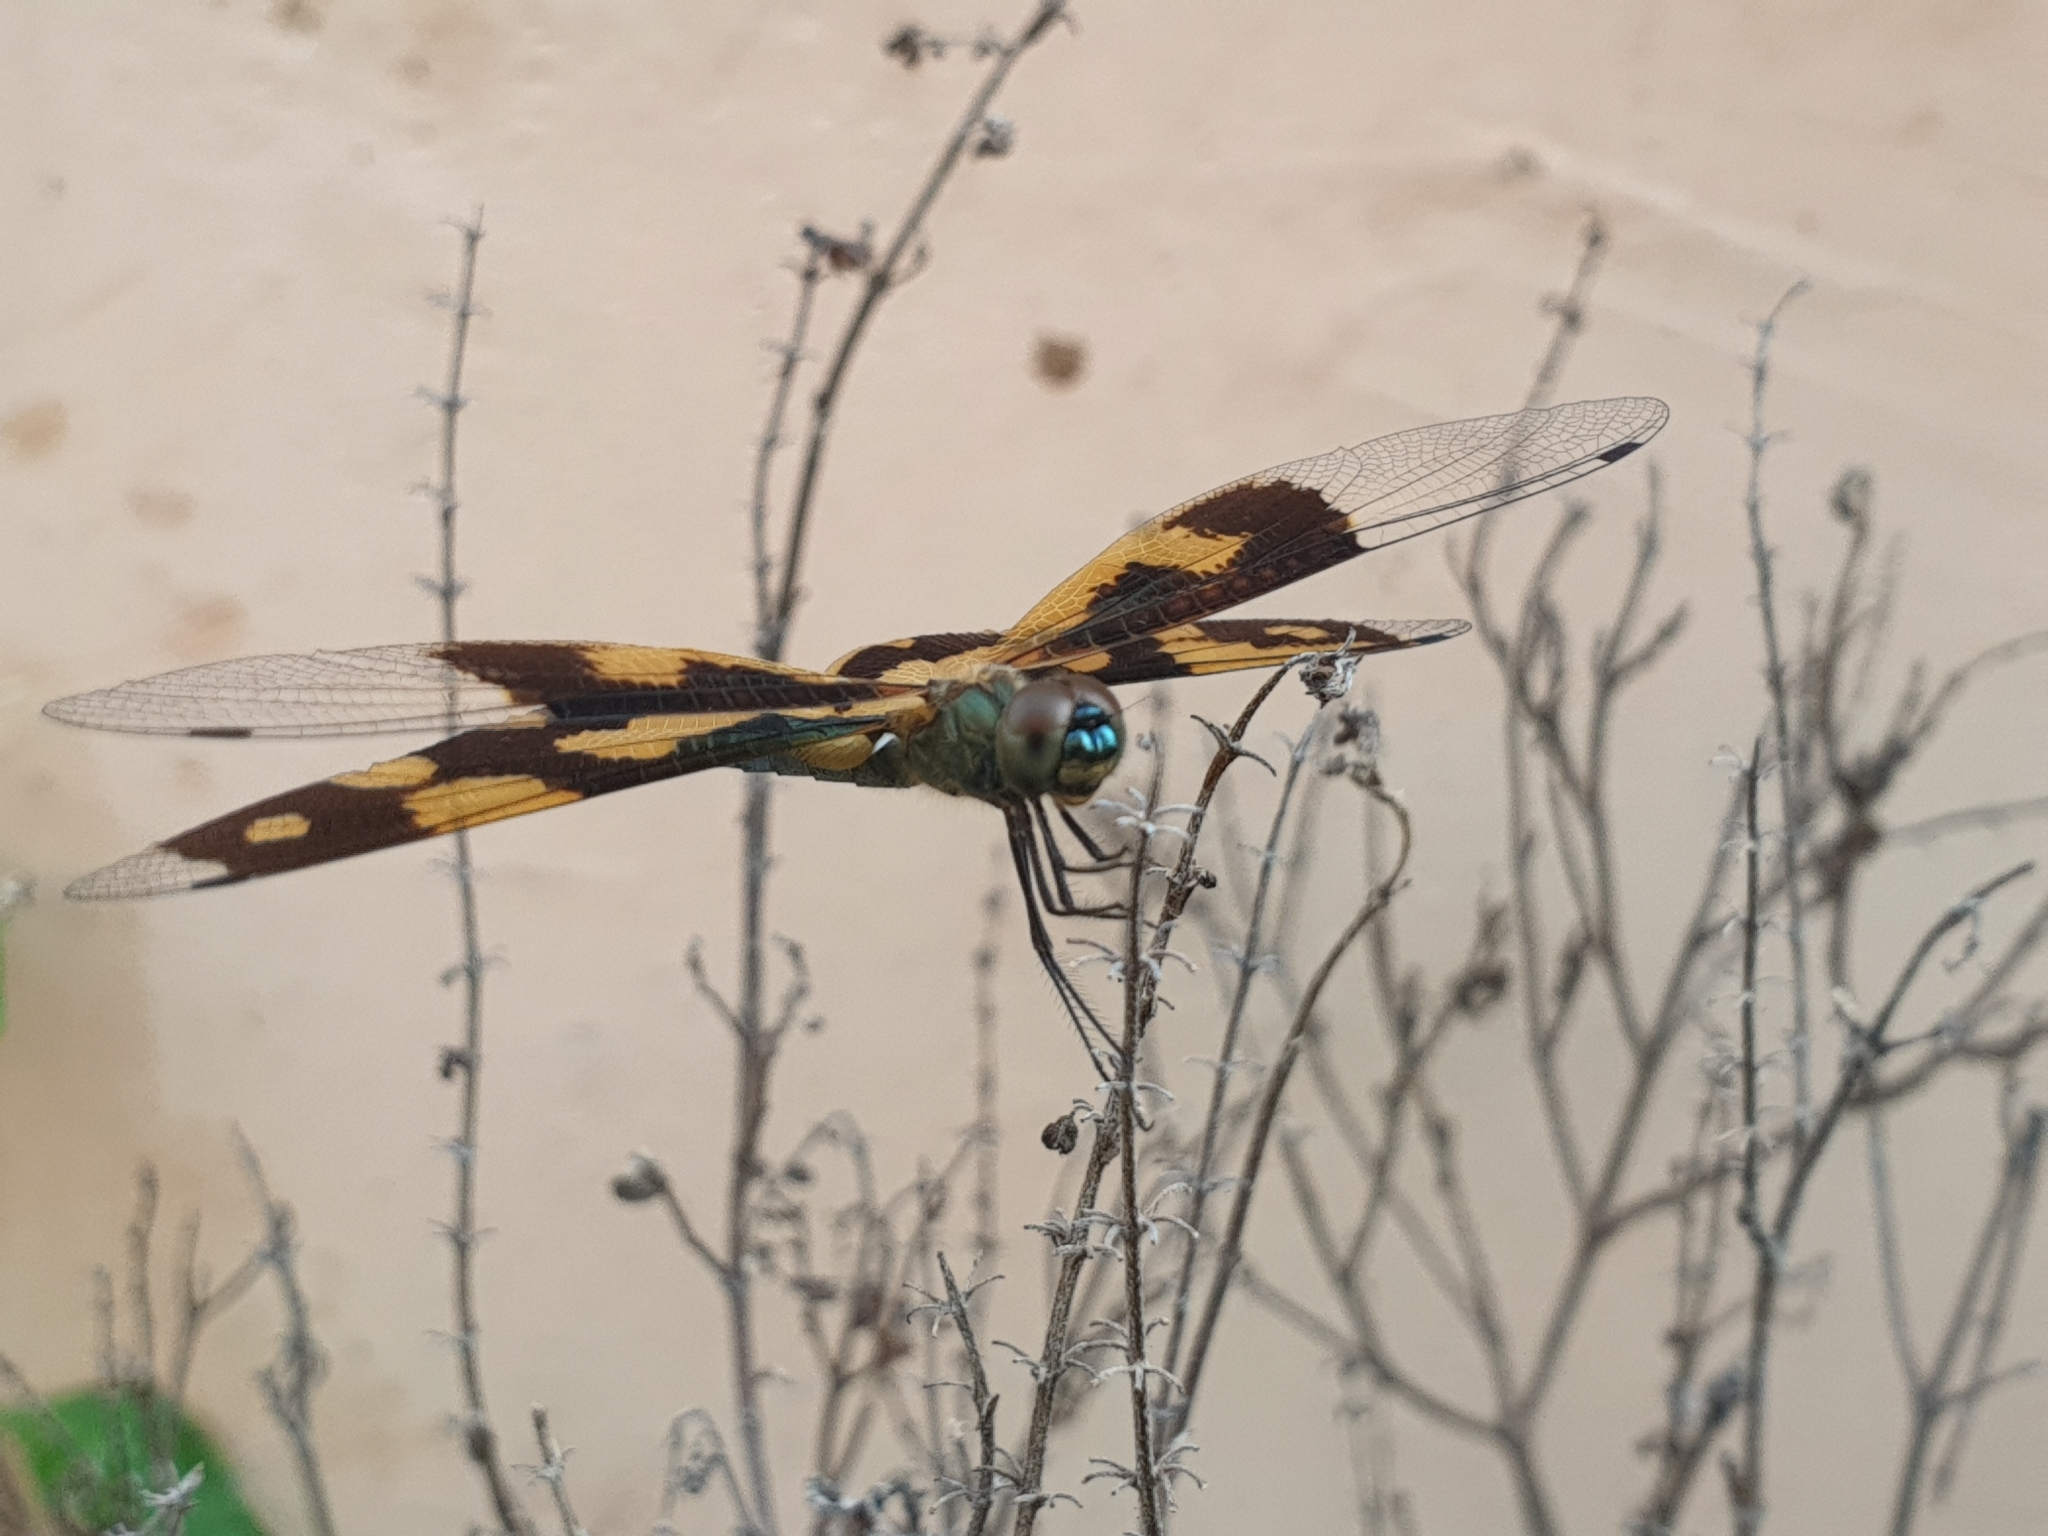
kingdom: Animalia
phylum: Arthropoda
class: Insecta
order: Odonata
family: Libellulidae
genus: Rhyothemis
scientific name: Rhyothemis variegata
